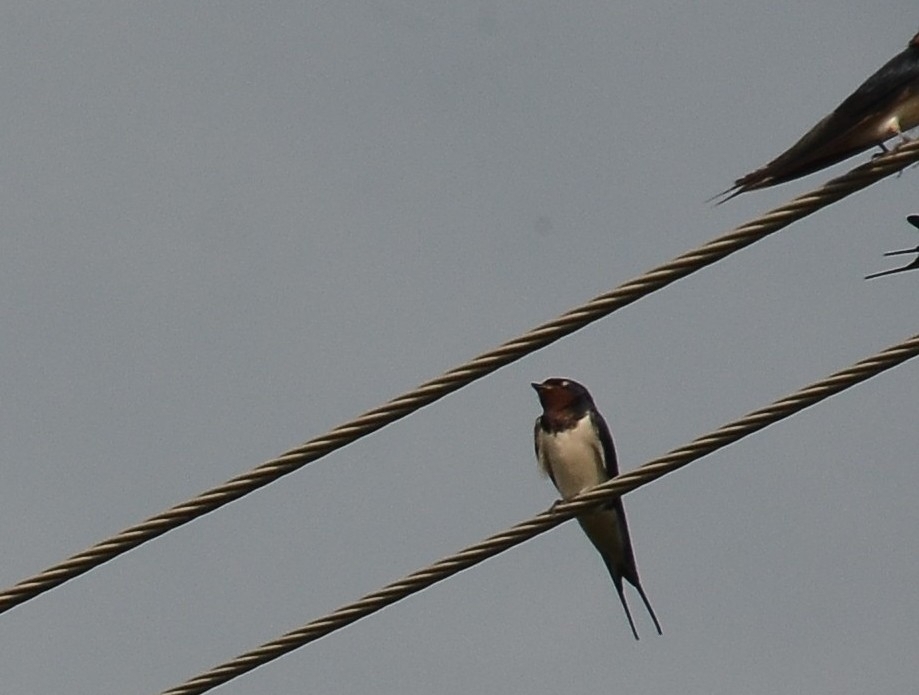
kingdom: Animalia
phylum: Chordata
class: Aves
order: Passeriformes
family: Hirundinidae
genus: Hirundo
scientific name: Hirundo rustica
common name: Barn swallow
